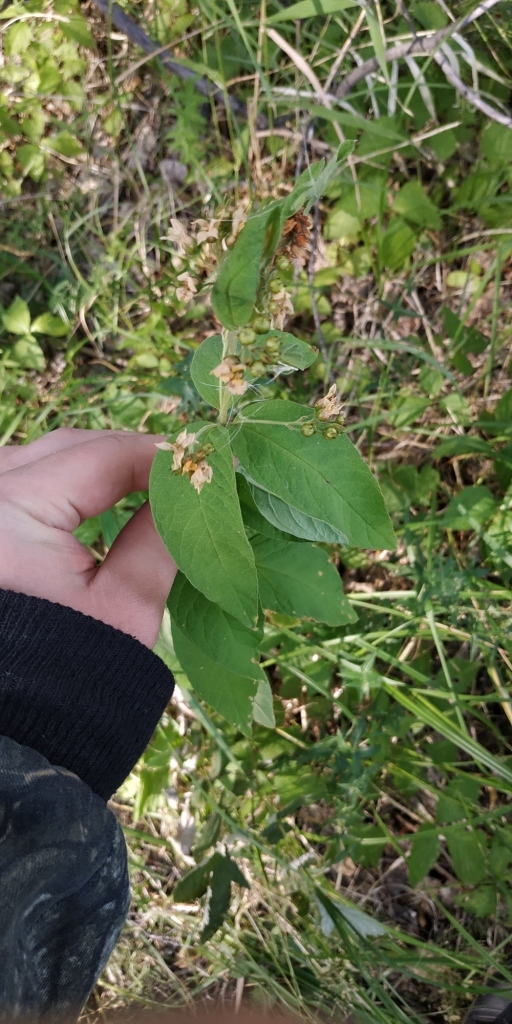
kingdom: Plantae
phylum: Tracheophyta
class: Magnoliopsida
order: Ericales
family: Primulaceae
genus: Lysimachia
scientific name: Lysimachia vulgaris
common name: Yellow loosestrife
